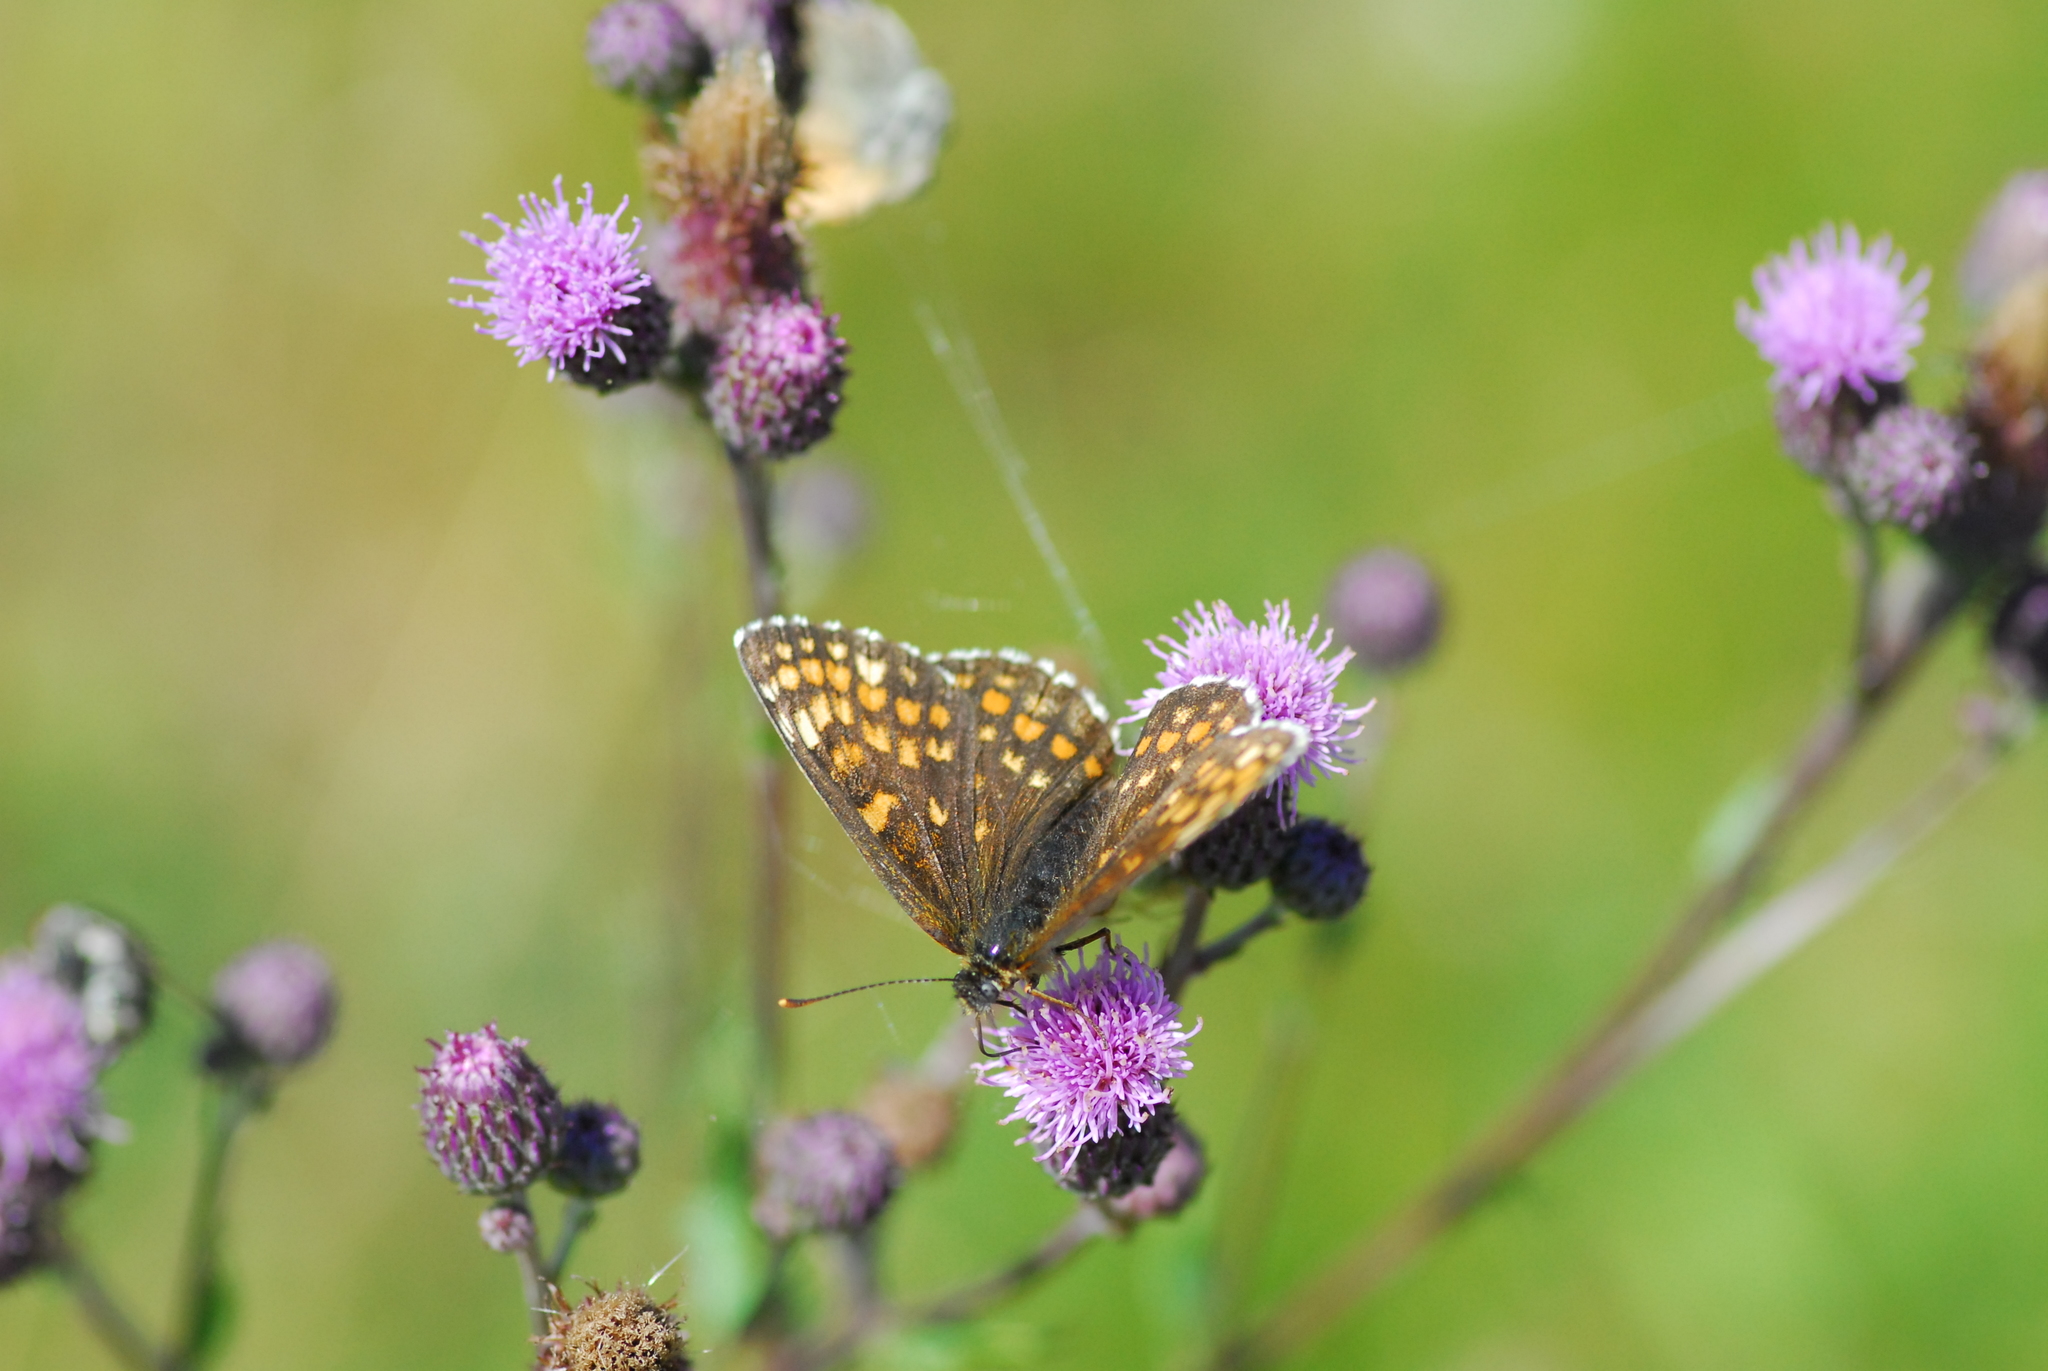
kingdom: Animalia
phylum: Arthropoda
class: Insecta
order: Lepidoptera
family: Nymphalidae
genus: Melitaea
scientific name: Melitaea athalia
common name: Heath fritillary
